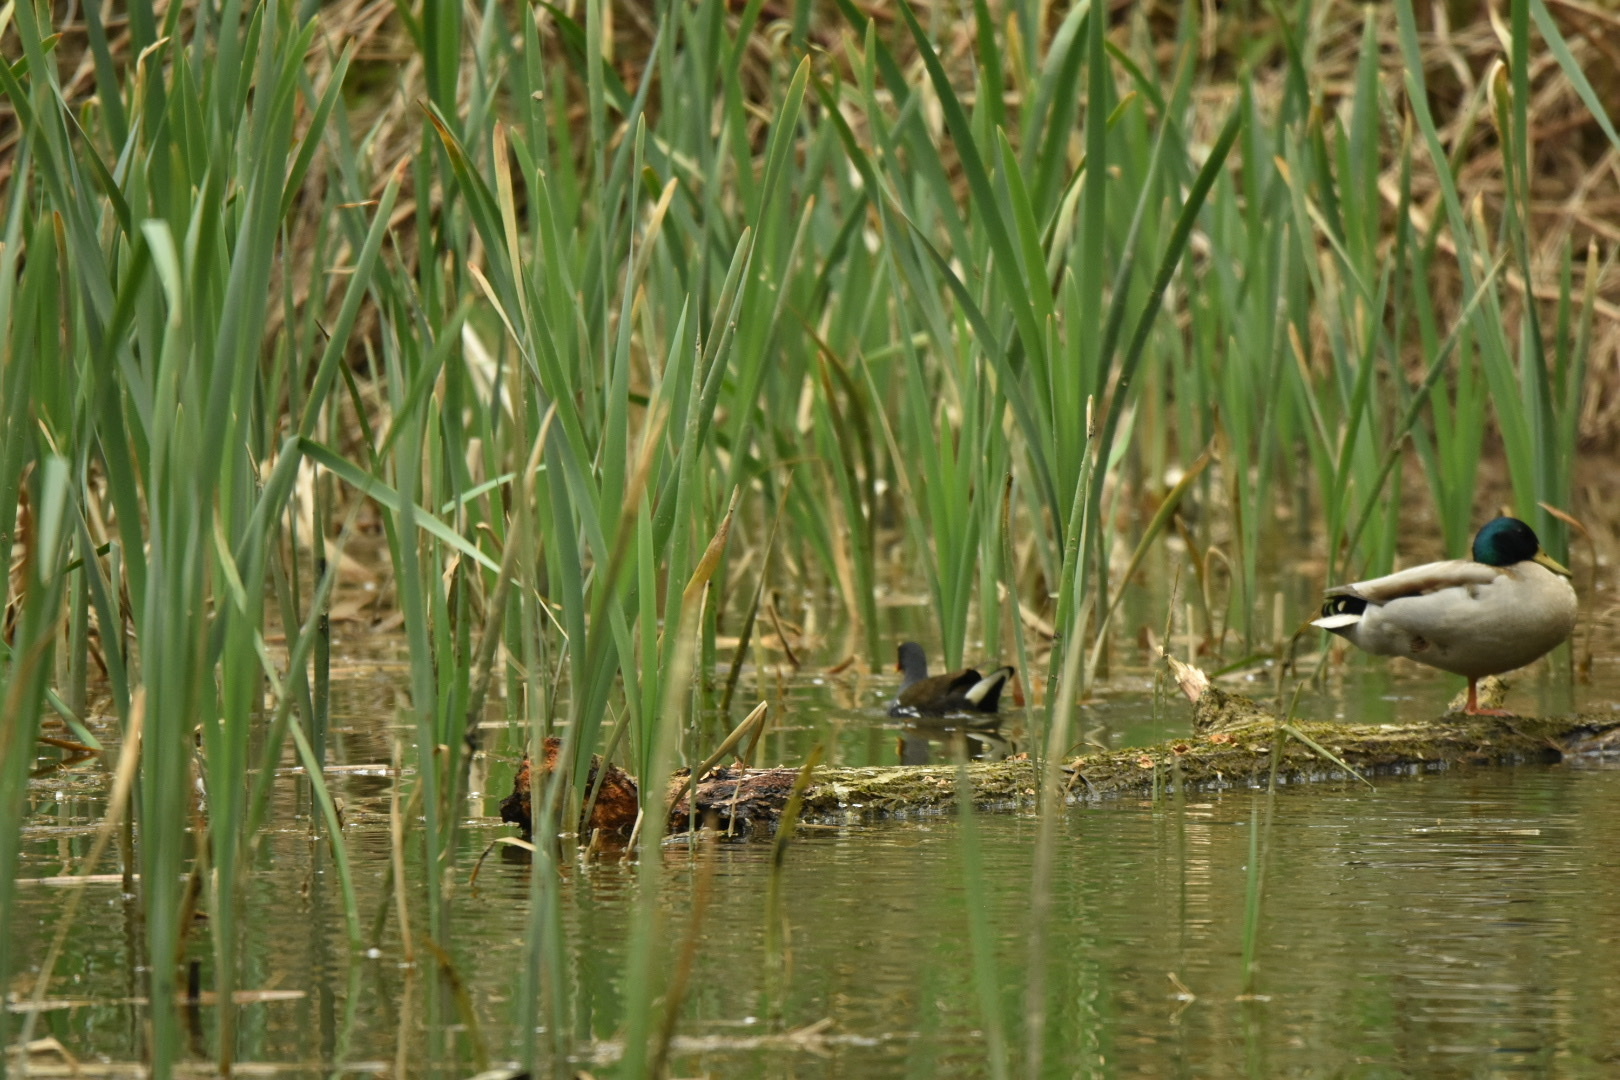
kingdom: Animalia
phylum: Chordata
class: Aves
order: Gruiformes
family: Rallidae
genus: Gallinula
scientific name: Gallinula chloropus
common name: Common moorhen
